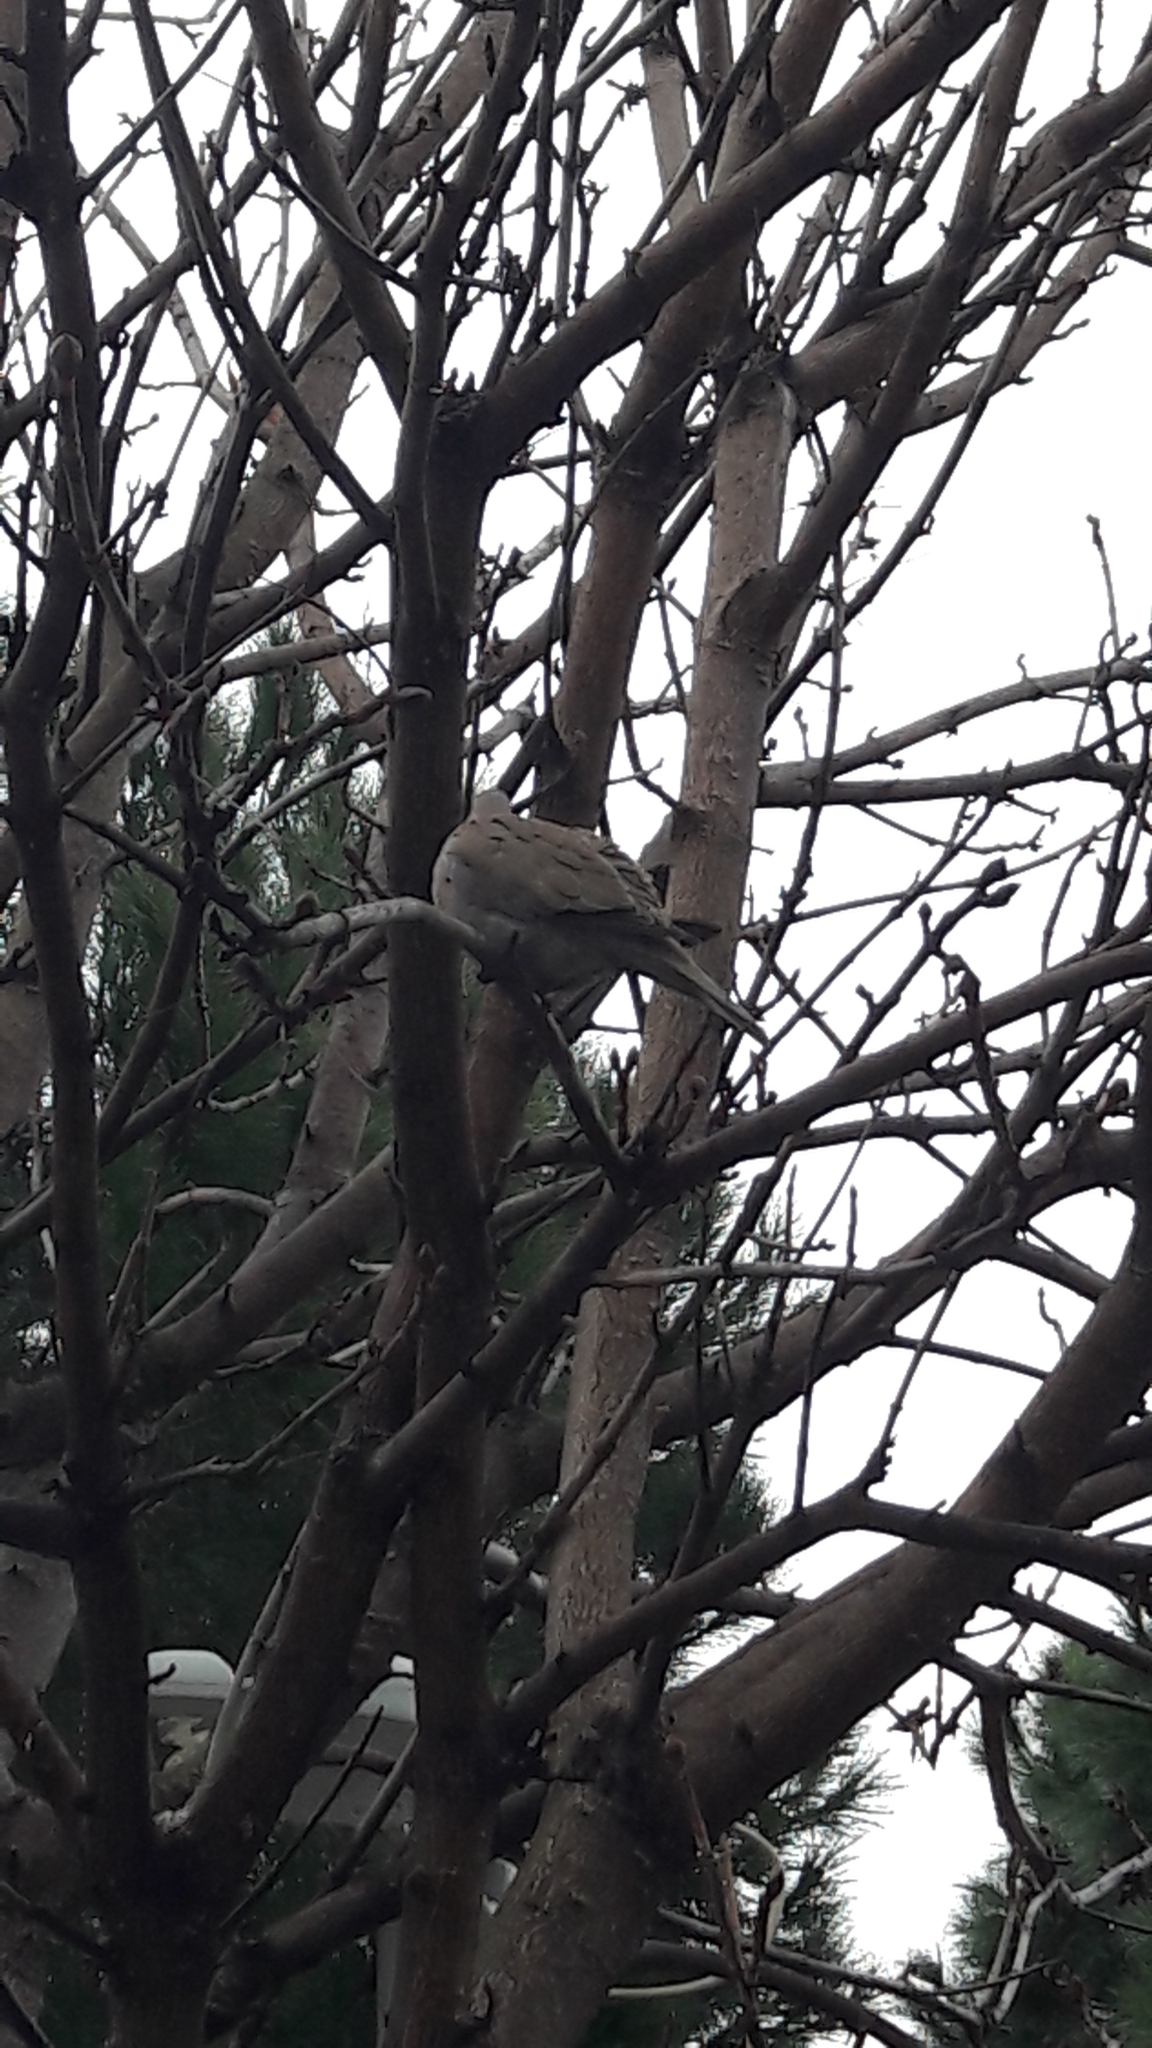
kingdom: Animalia
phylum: Chordata
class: Aves
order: Columbiformes
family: Columbidae
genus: Streptopelia
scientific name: Streptopelia decaocto
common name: Eurasian collared dove
